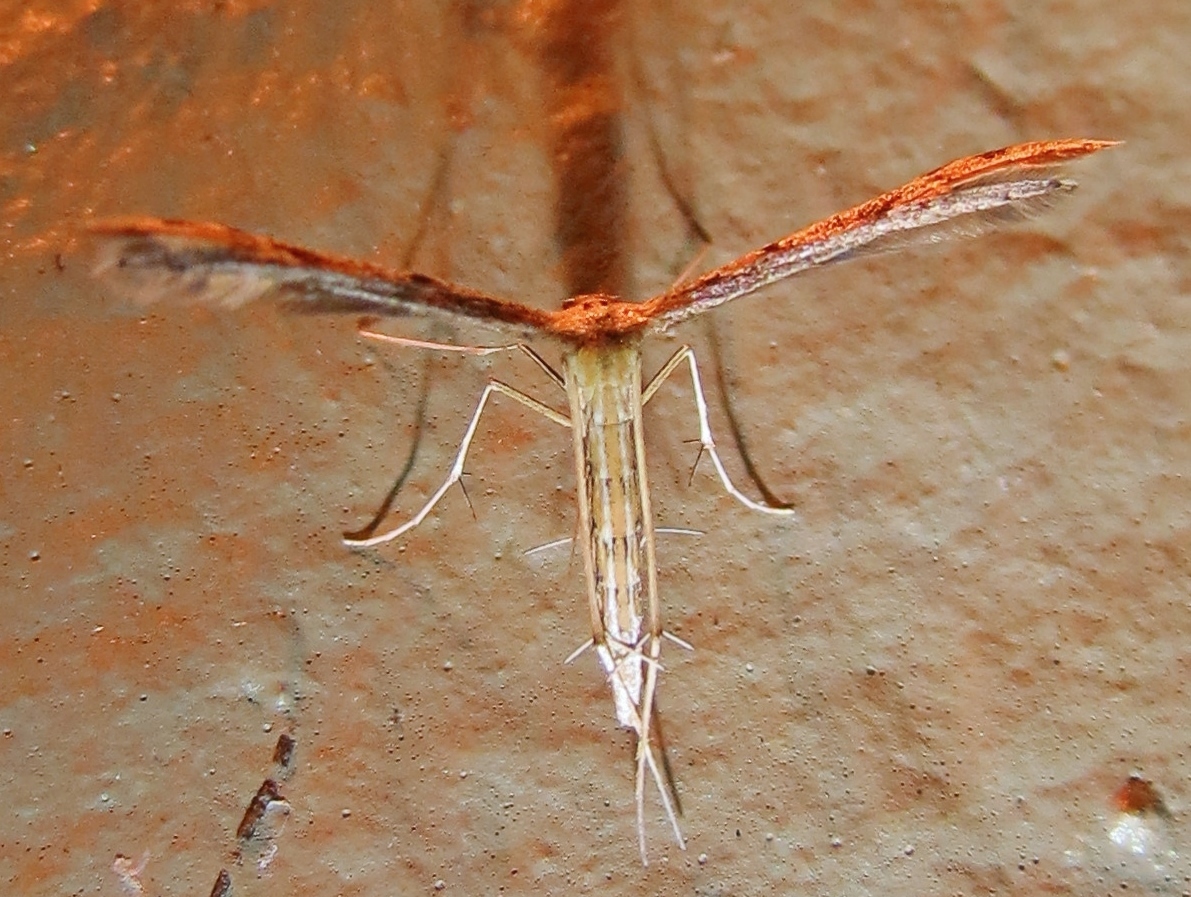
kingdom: Animalia
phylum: Arthropoda
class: Insecta
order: Lepidoptera
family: Pterophoridae
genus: Pselnophorus
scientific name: Pselnophorus belfragei
